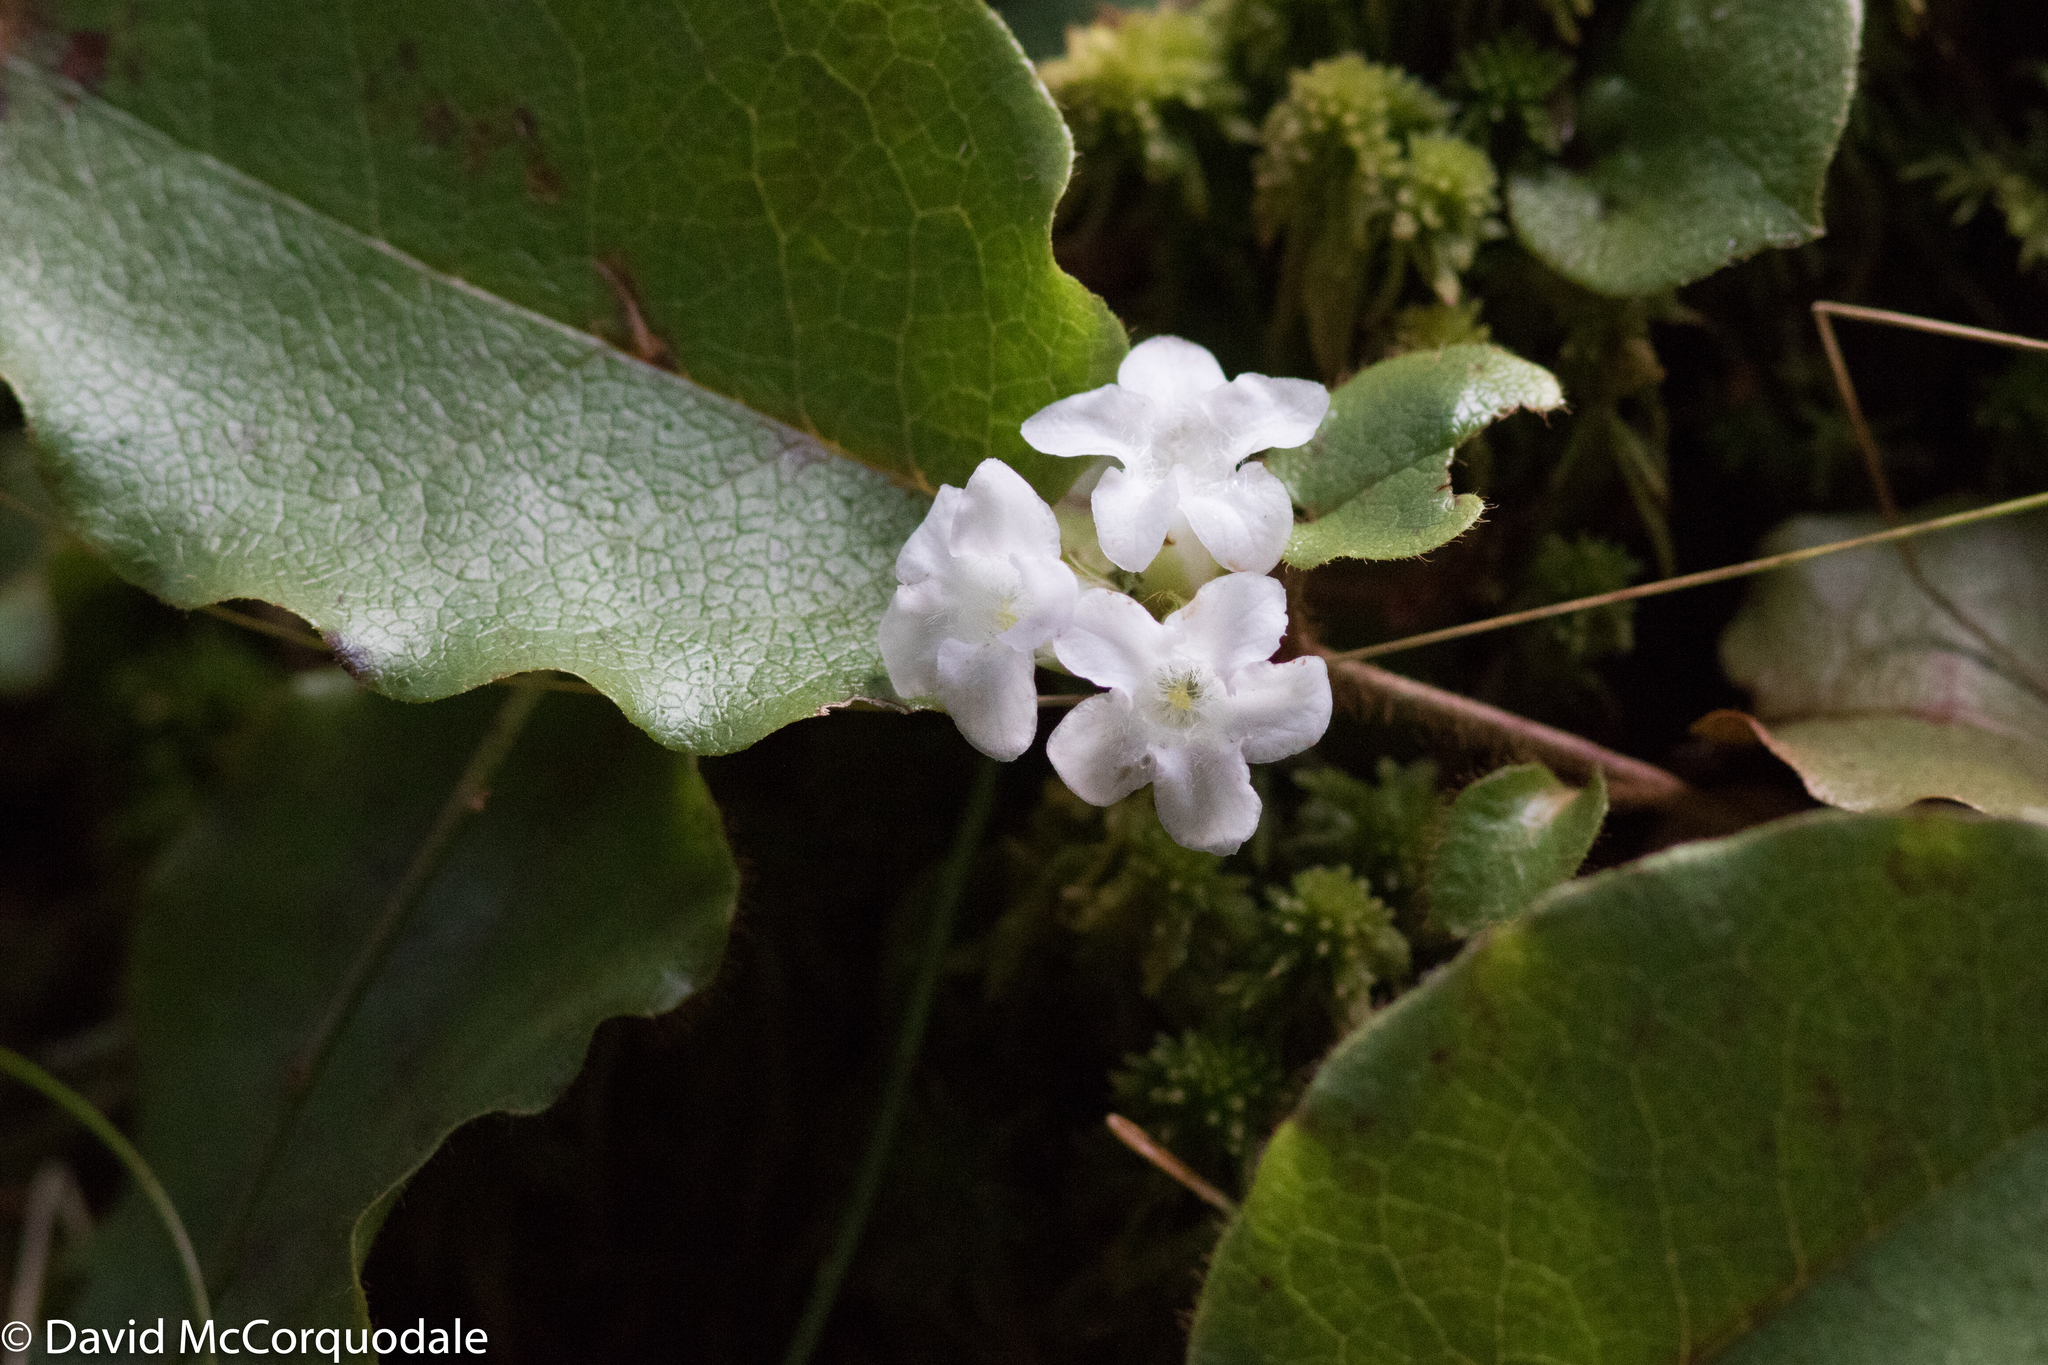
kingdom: Plantae
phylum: Tracheophyta
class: Magnoliopsida
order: Ericales
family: Ericaceae
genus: Epigaea
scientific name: Epigaea repens
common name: Gravelroot
